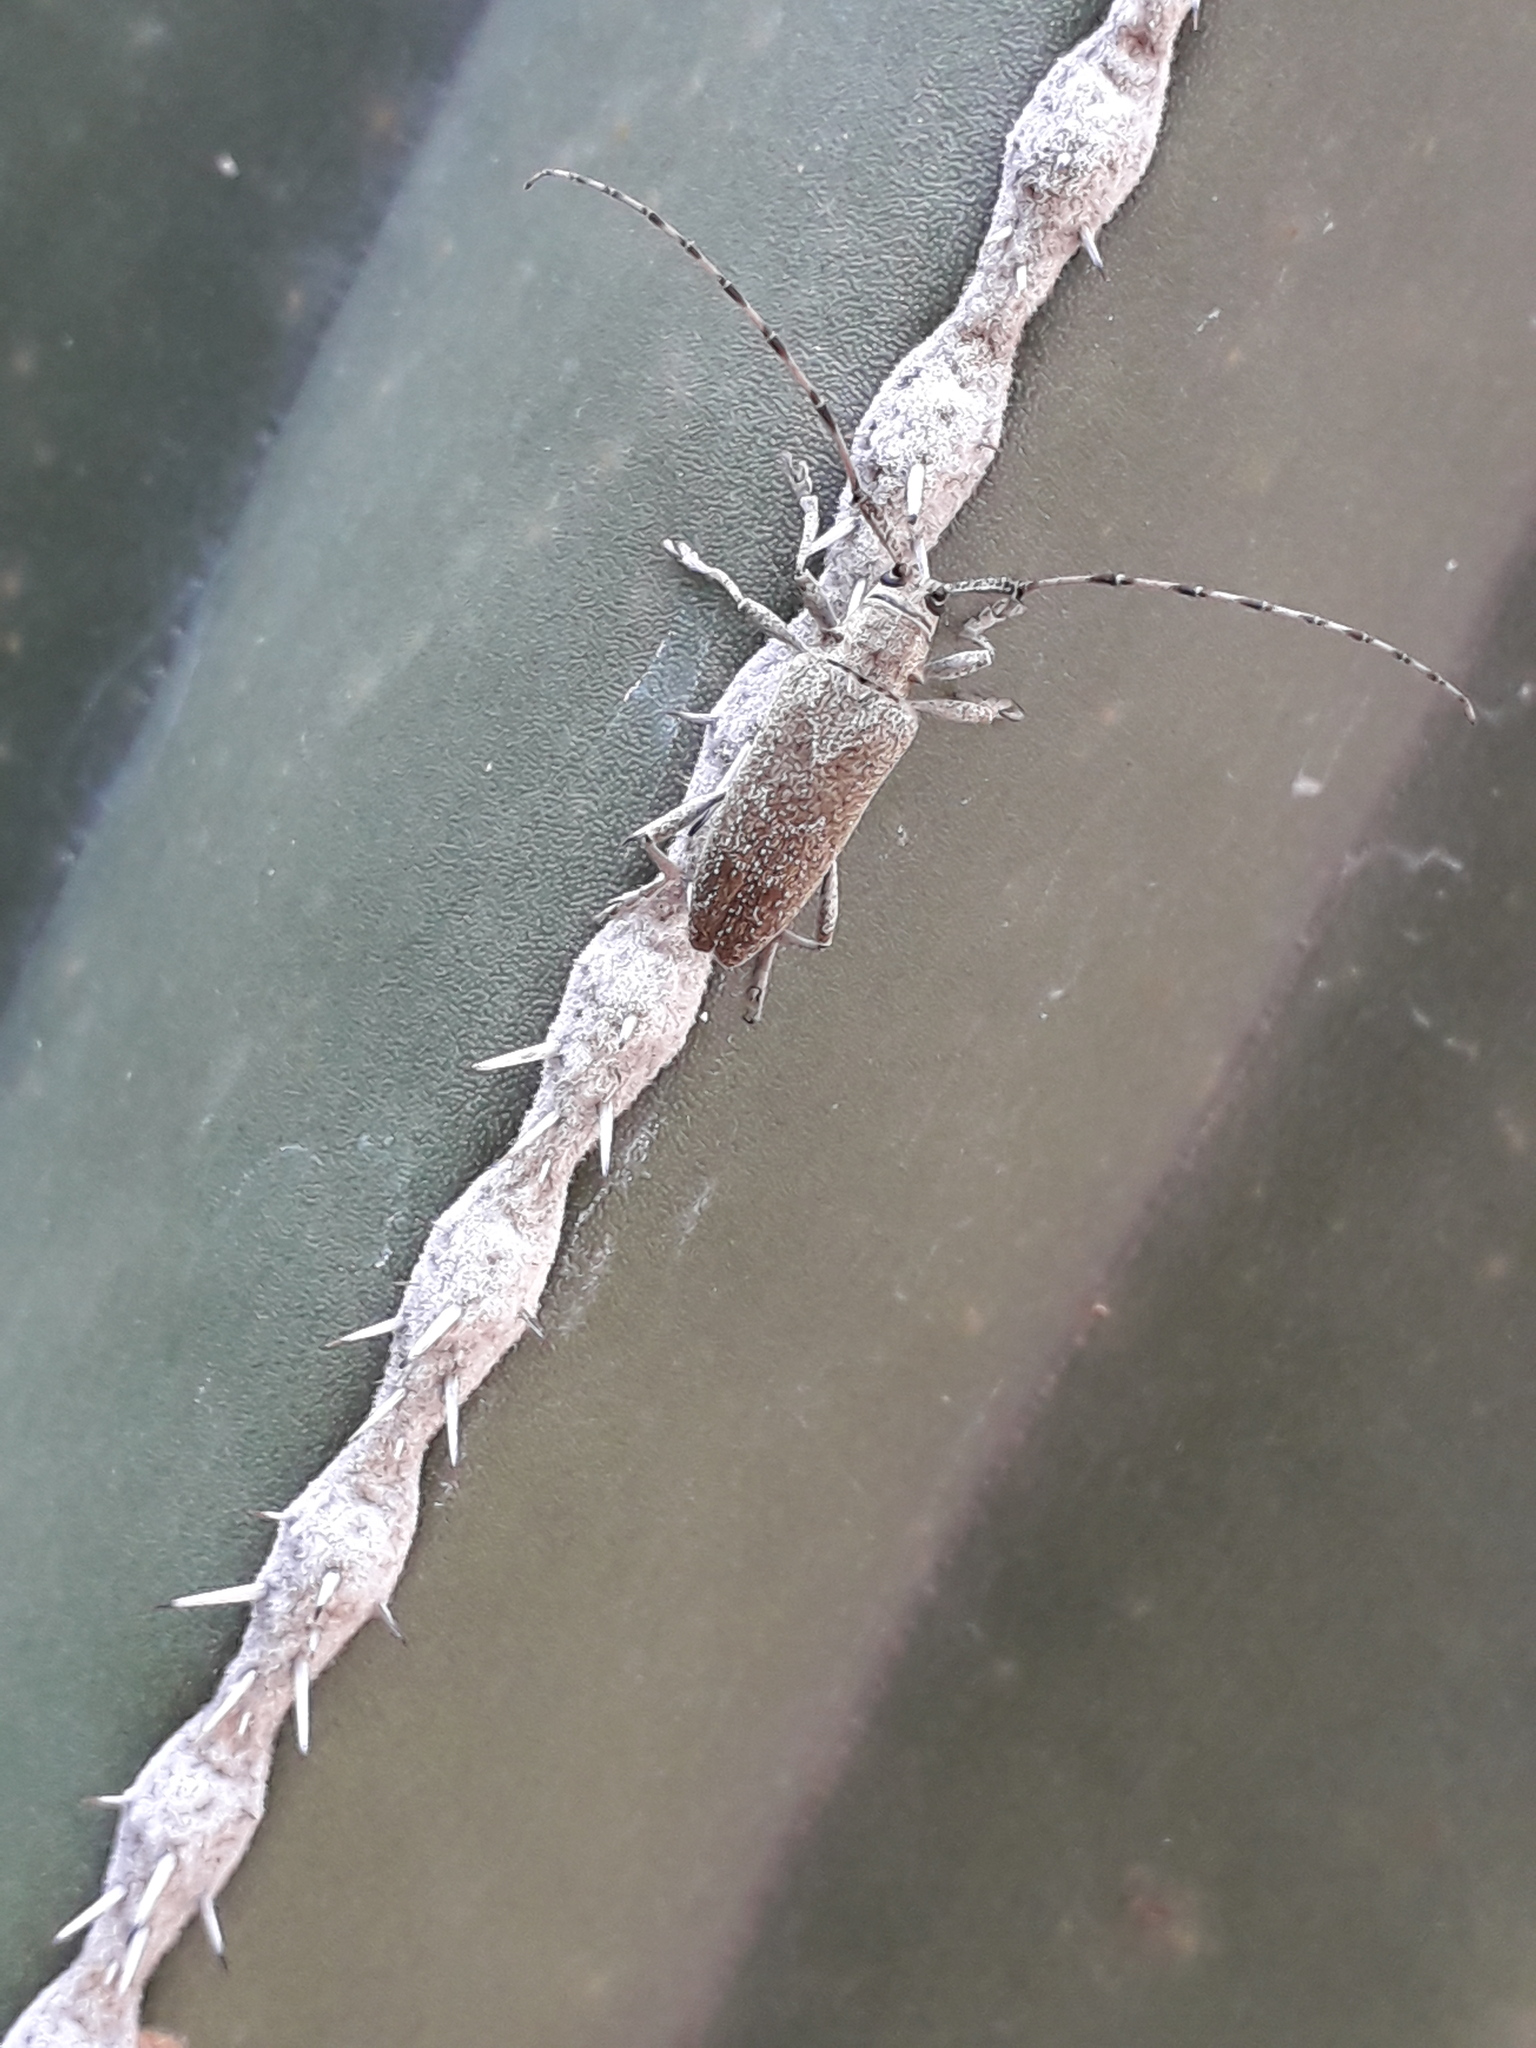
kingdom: Animalia
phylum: Arthropoda
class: Insecta
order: Coleoptera
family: Cerambycidae
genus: Canidia
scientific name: Canidia mexicana
